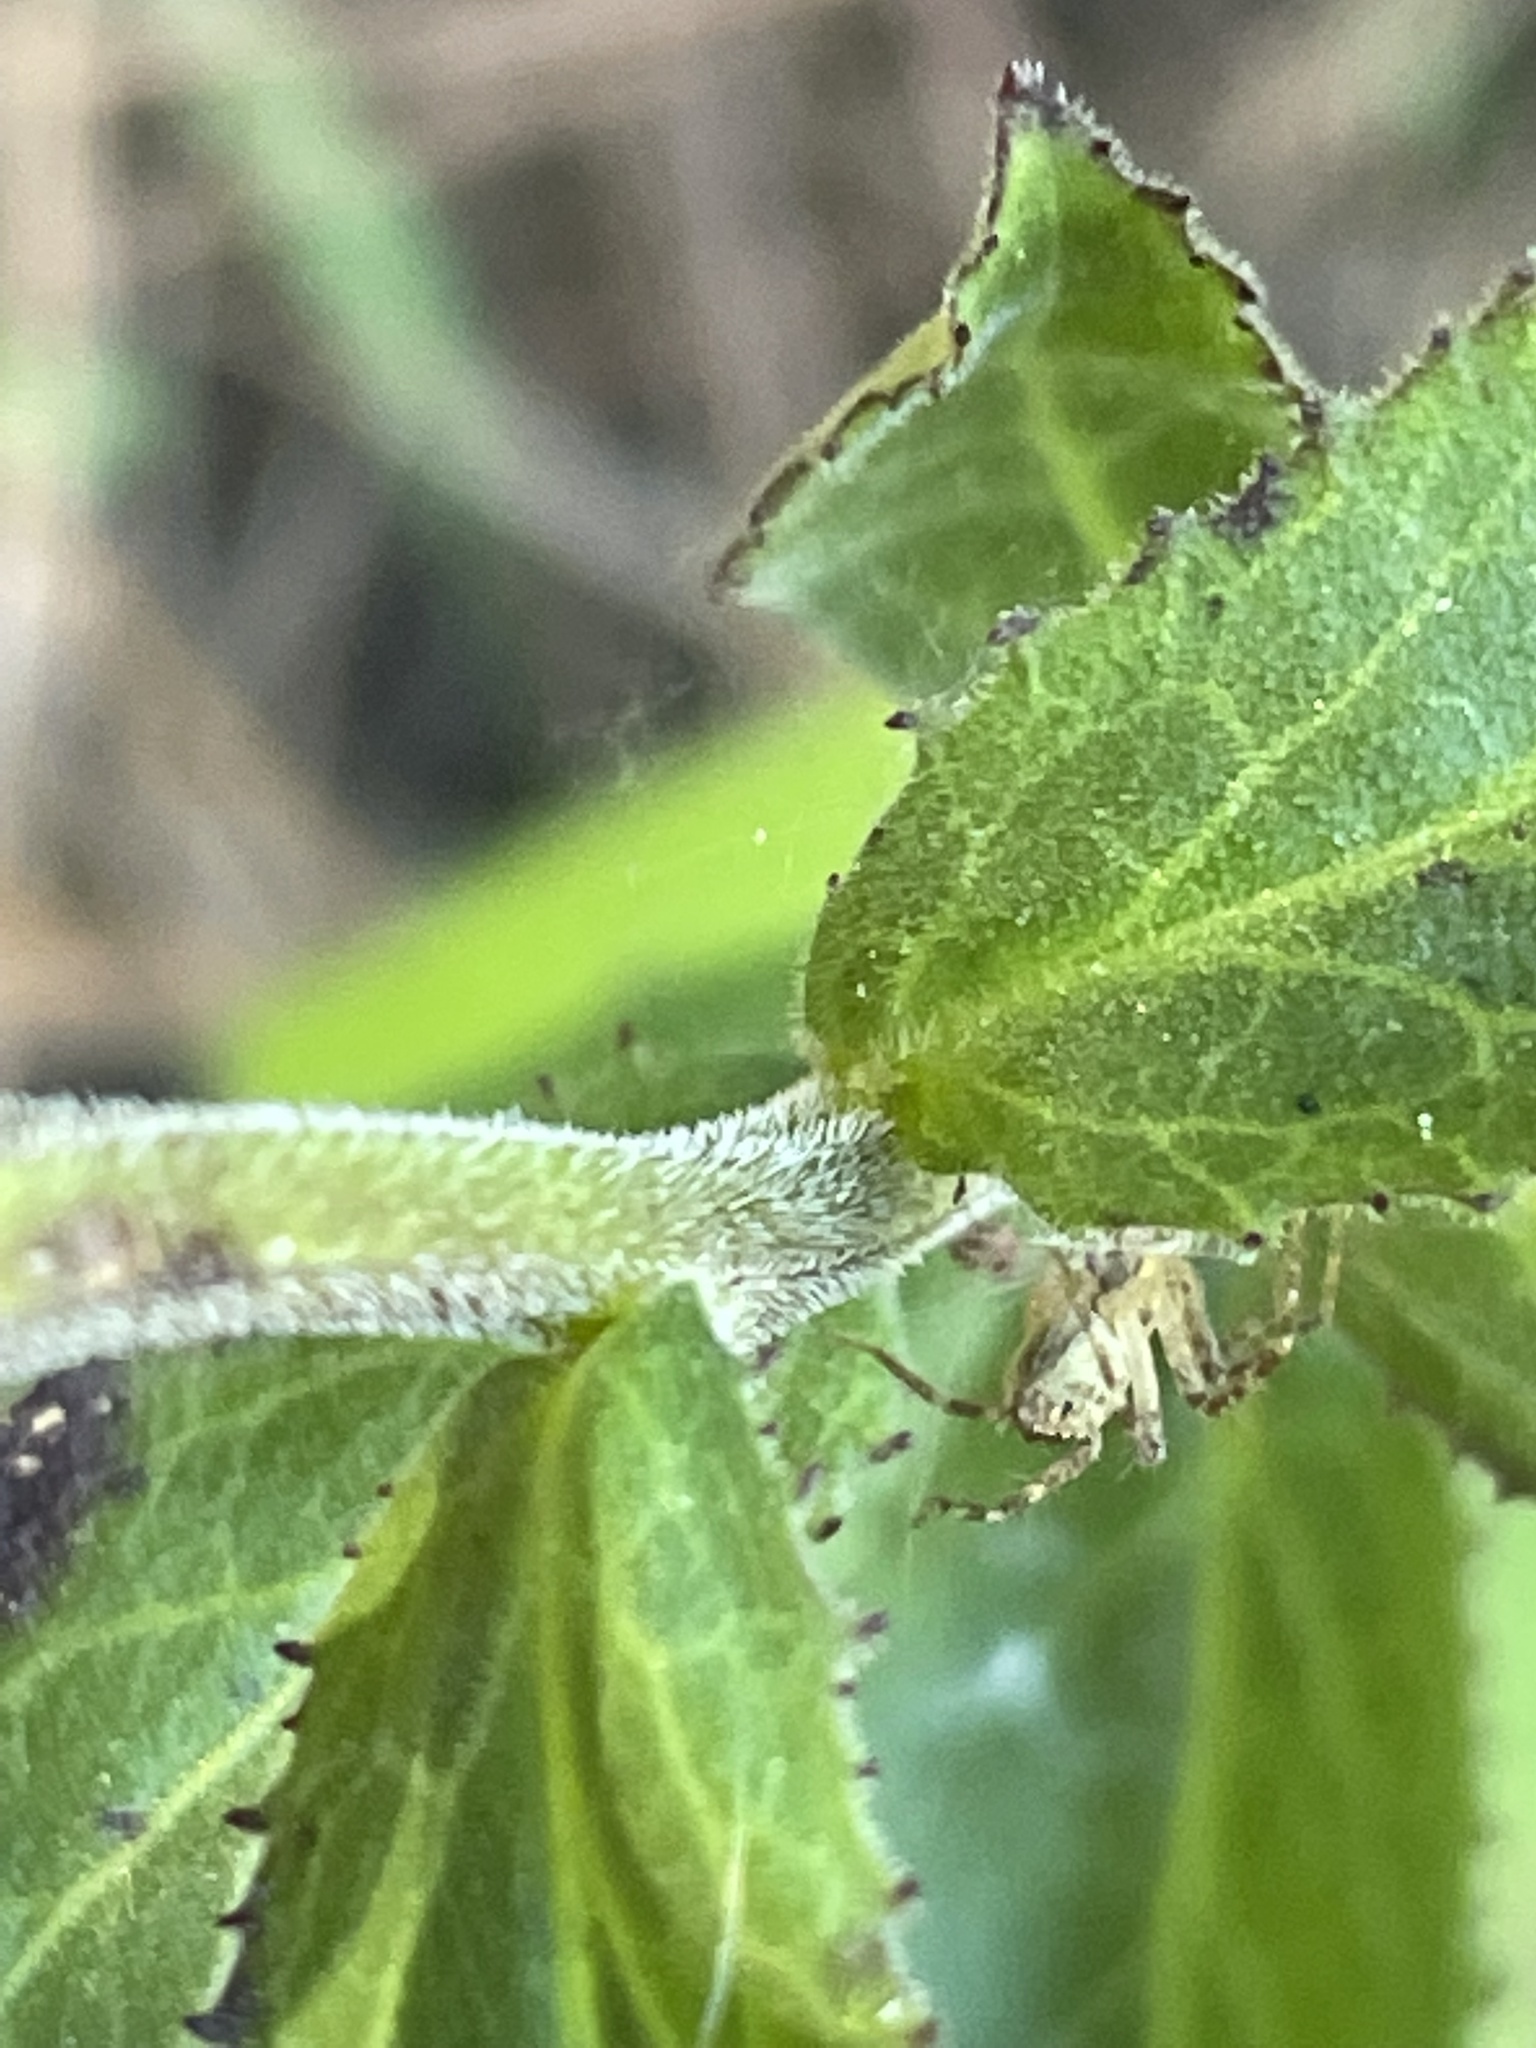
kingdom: Plantae
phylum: Tracheophyta
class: Magnoliopsida
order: Asterales
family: Campanulaceae
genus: Lobelia
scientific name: Lobelia puberula
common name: Purple dewdrop
